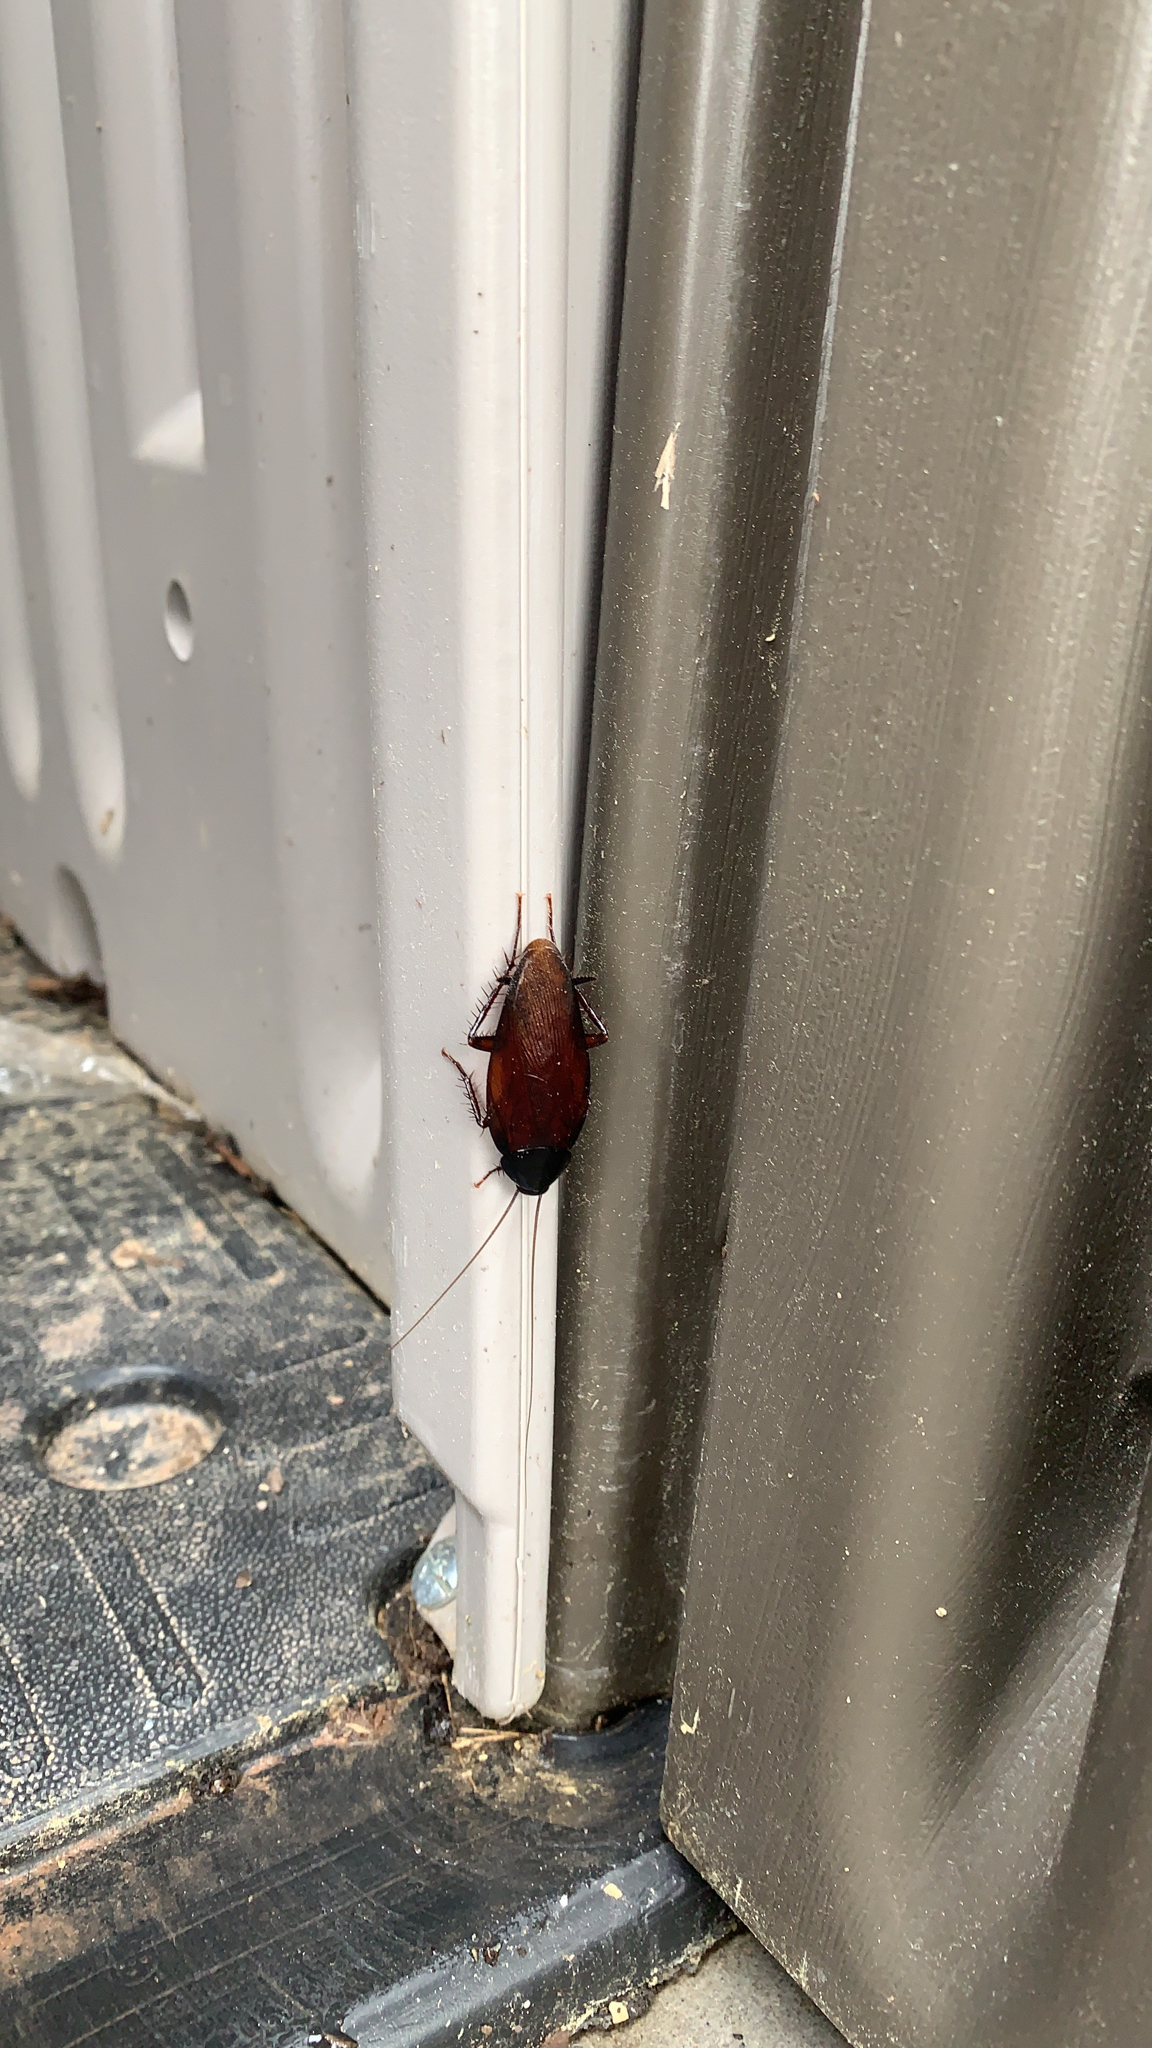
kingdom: Animalia
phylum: Arthropoda
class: Insecta
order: Blattodea
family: Blattidae
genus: Periplaneta
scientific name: Periplaneta fuliginosa
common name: Smokeybrown cockroad
